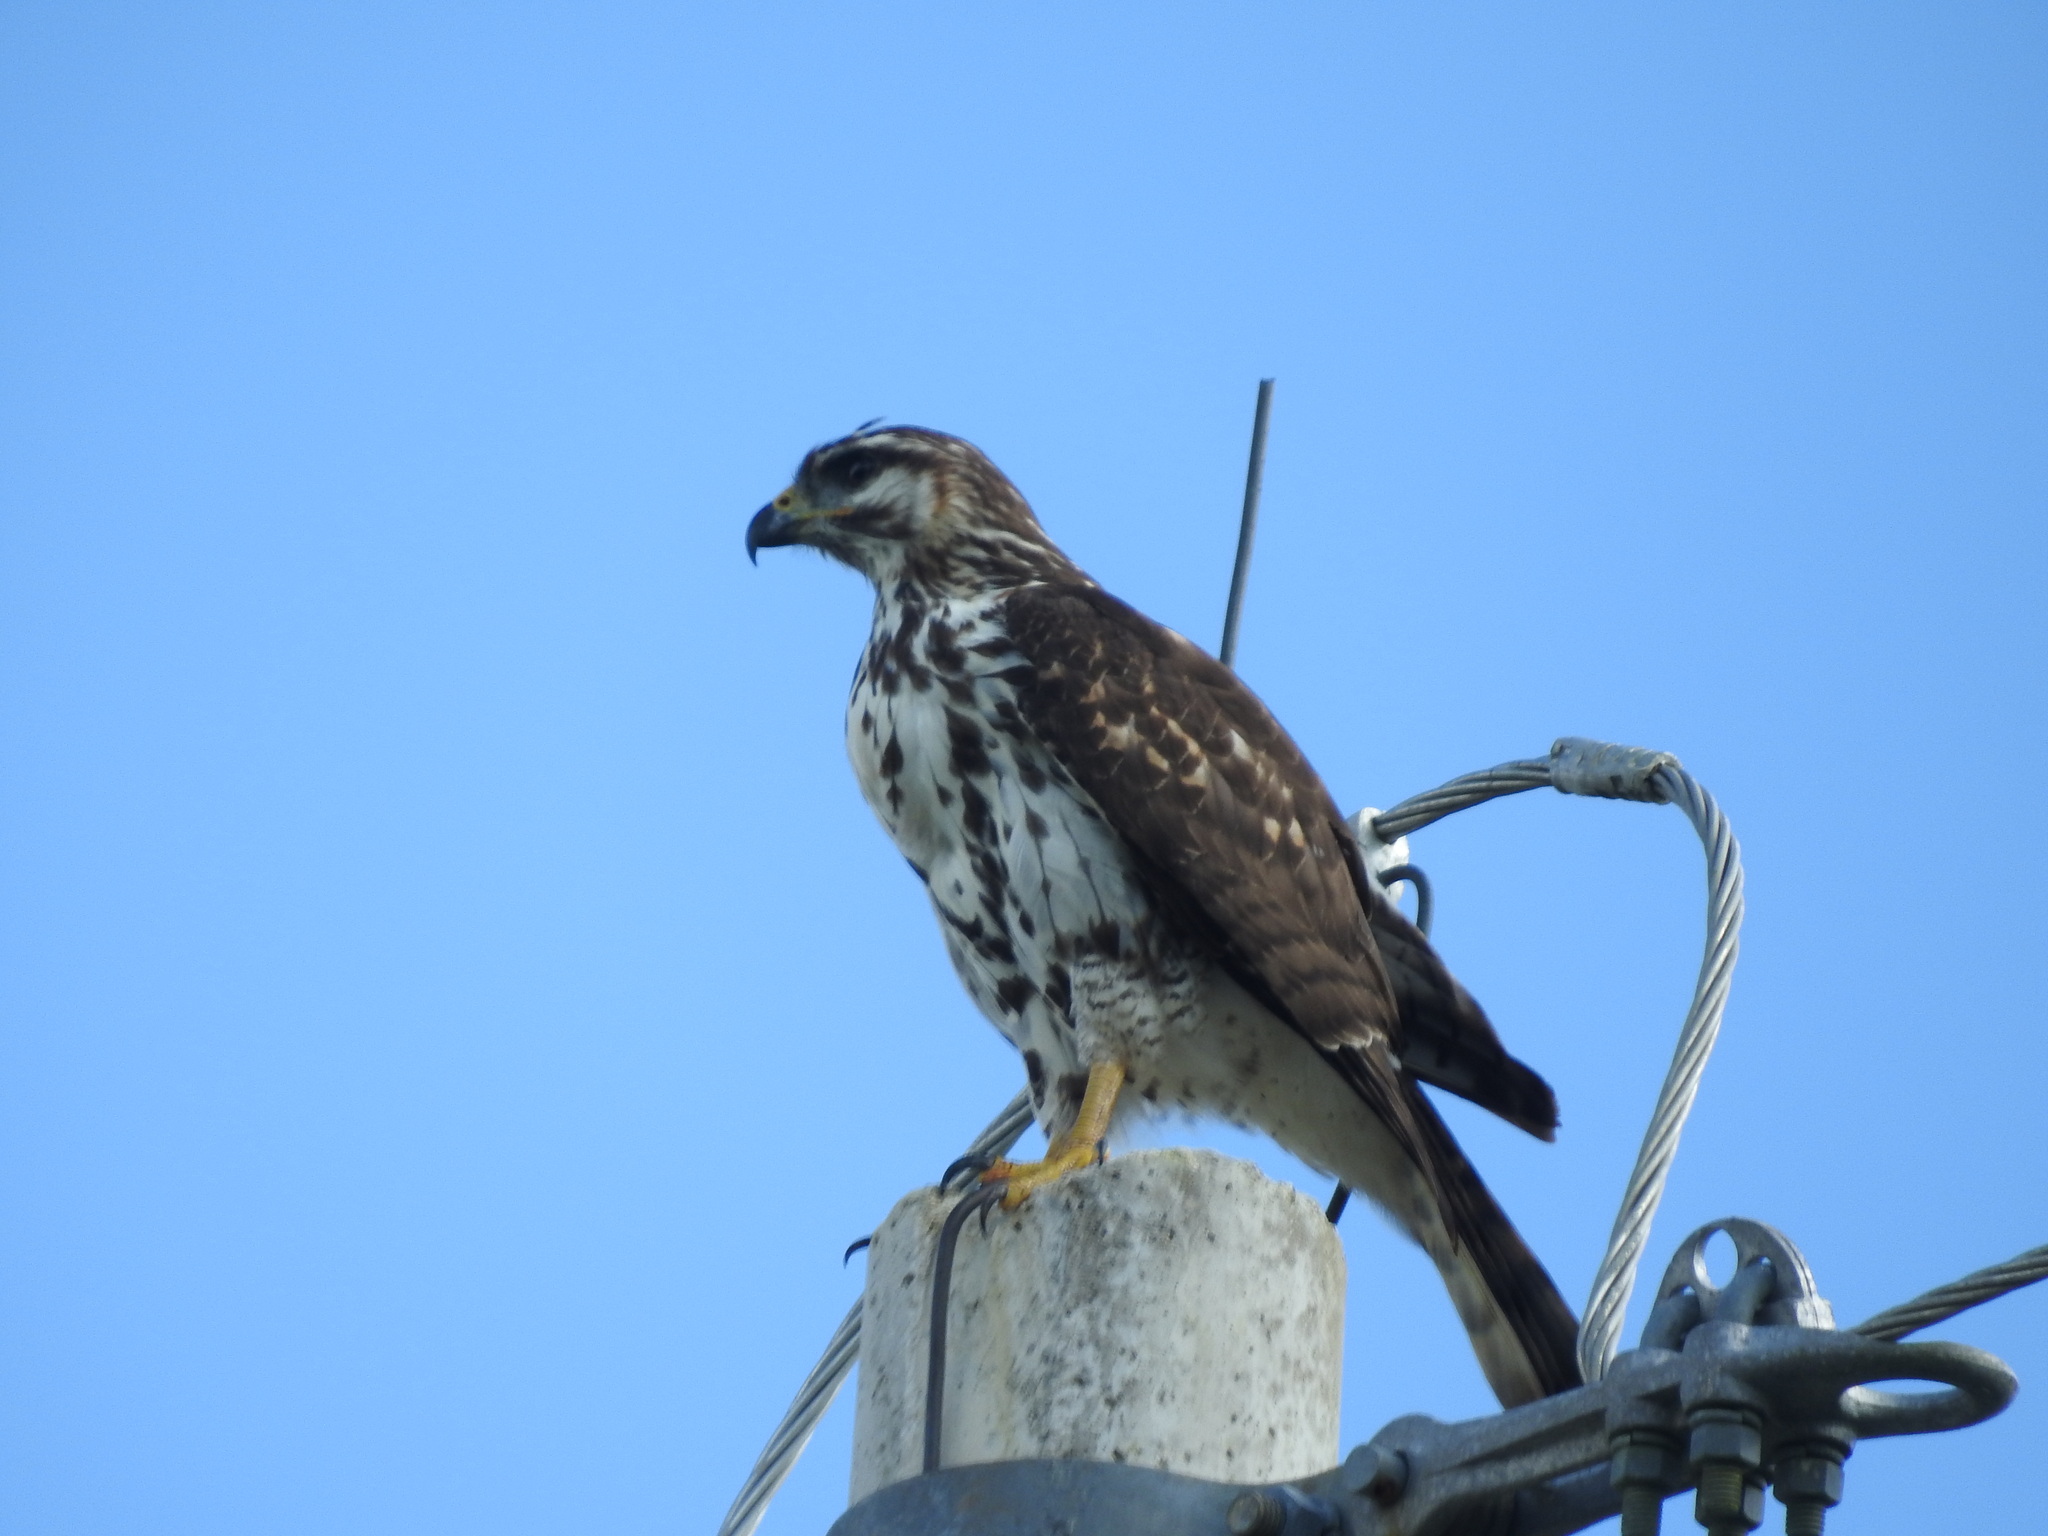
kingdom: Animalia
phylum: Chordata
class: Aves
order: Accipitriformes
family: Accipitridae
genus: Buteo
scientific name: Buteo nitidus
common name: Grey-lined hawk
